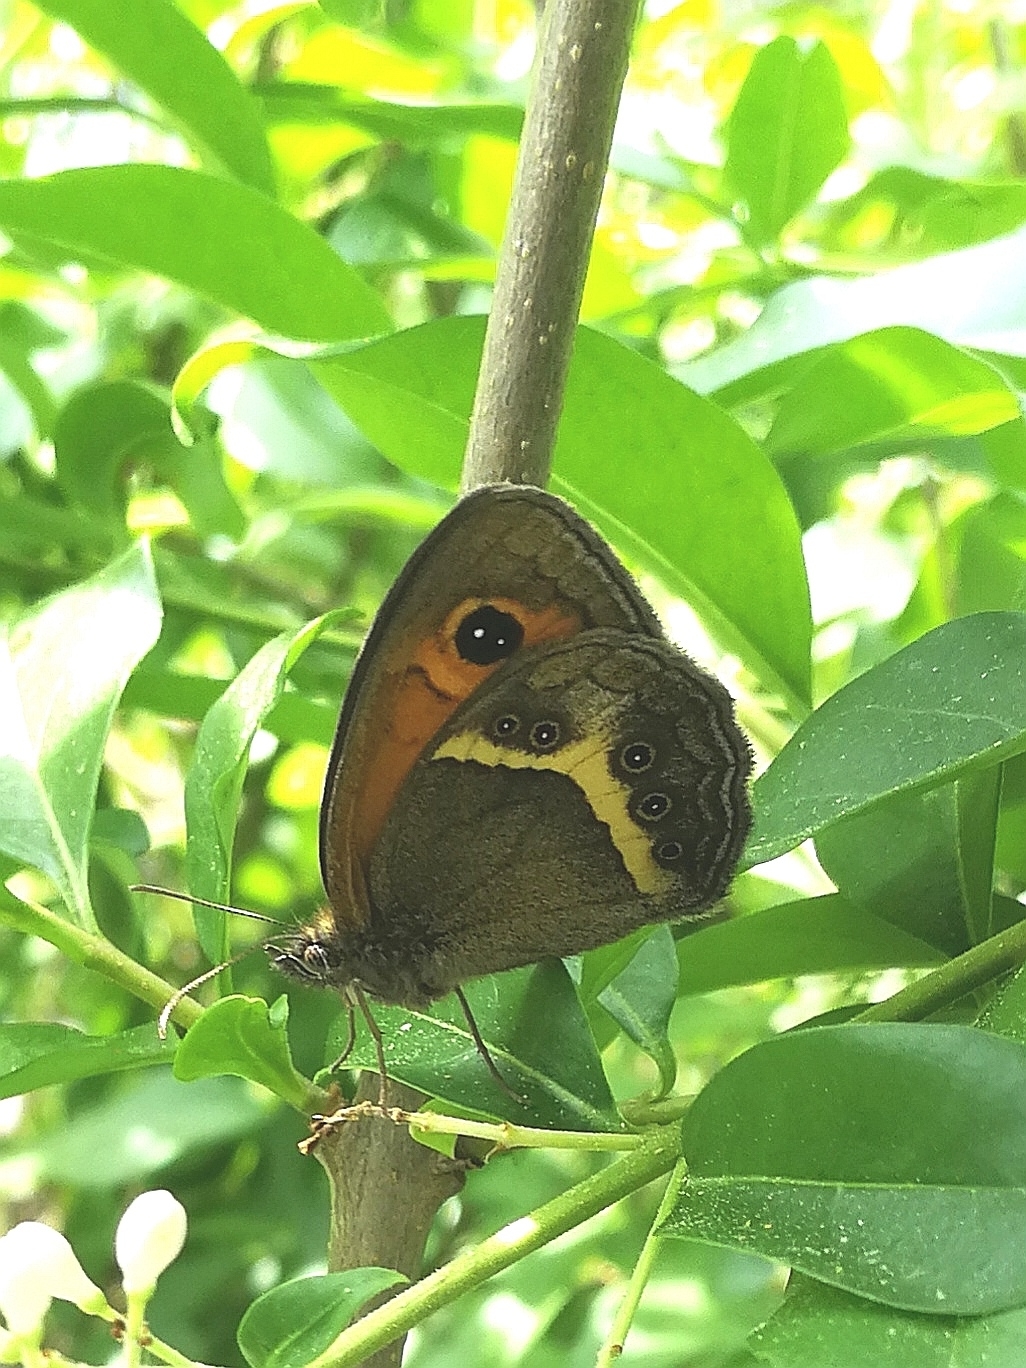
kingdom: Animalia
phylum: Arthropoda
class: Insecta
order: Lepidoptera
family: Nymphalidae
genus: Pyronia
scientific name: Pyronia bathseba
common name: Spanish gatekeeper
